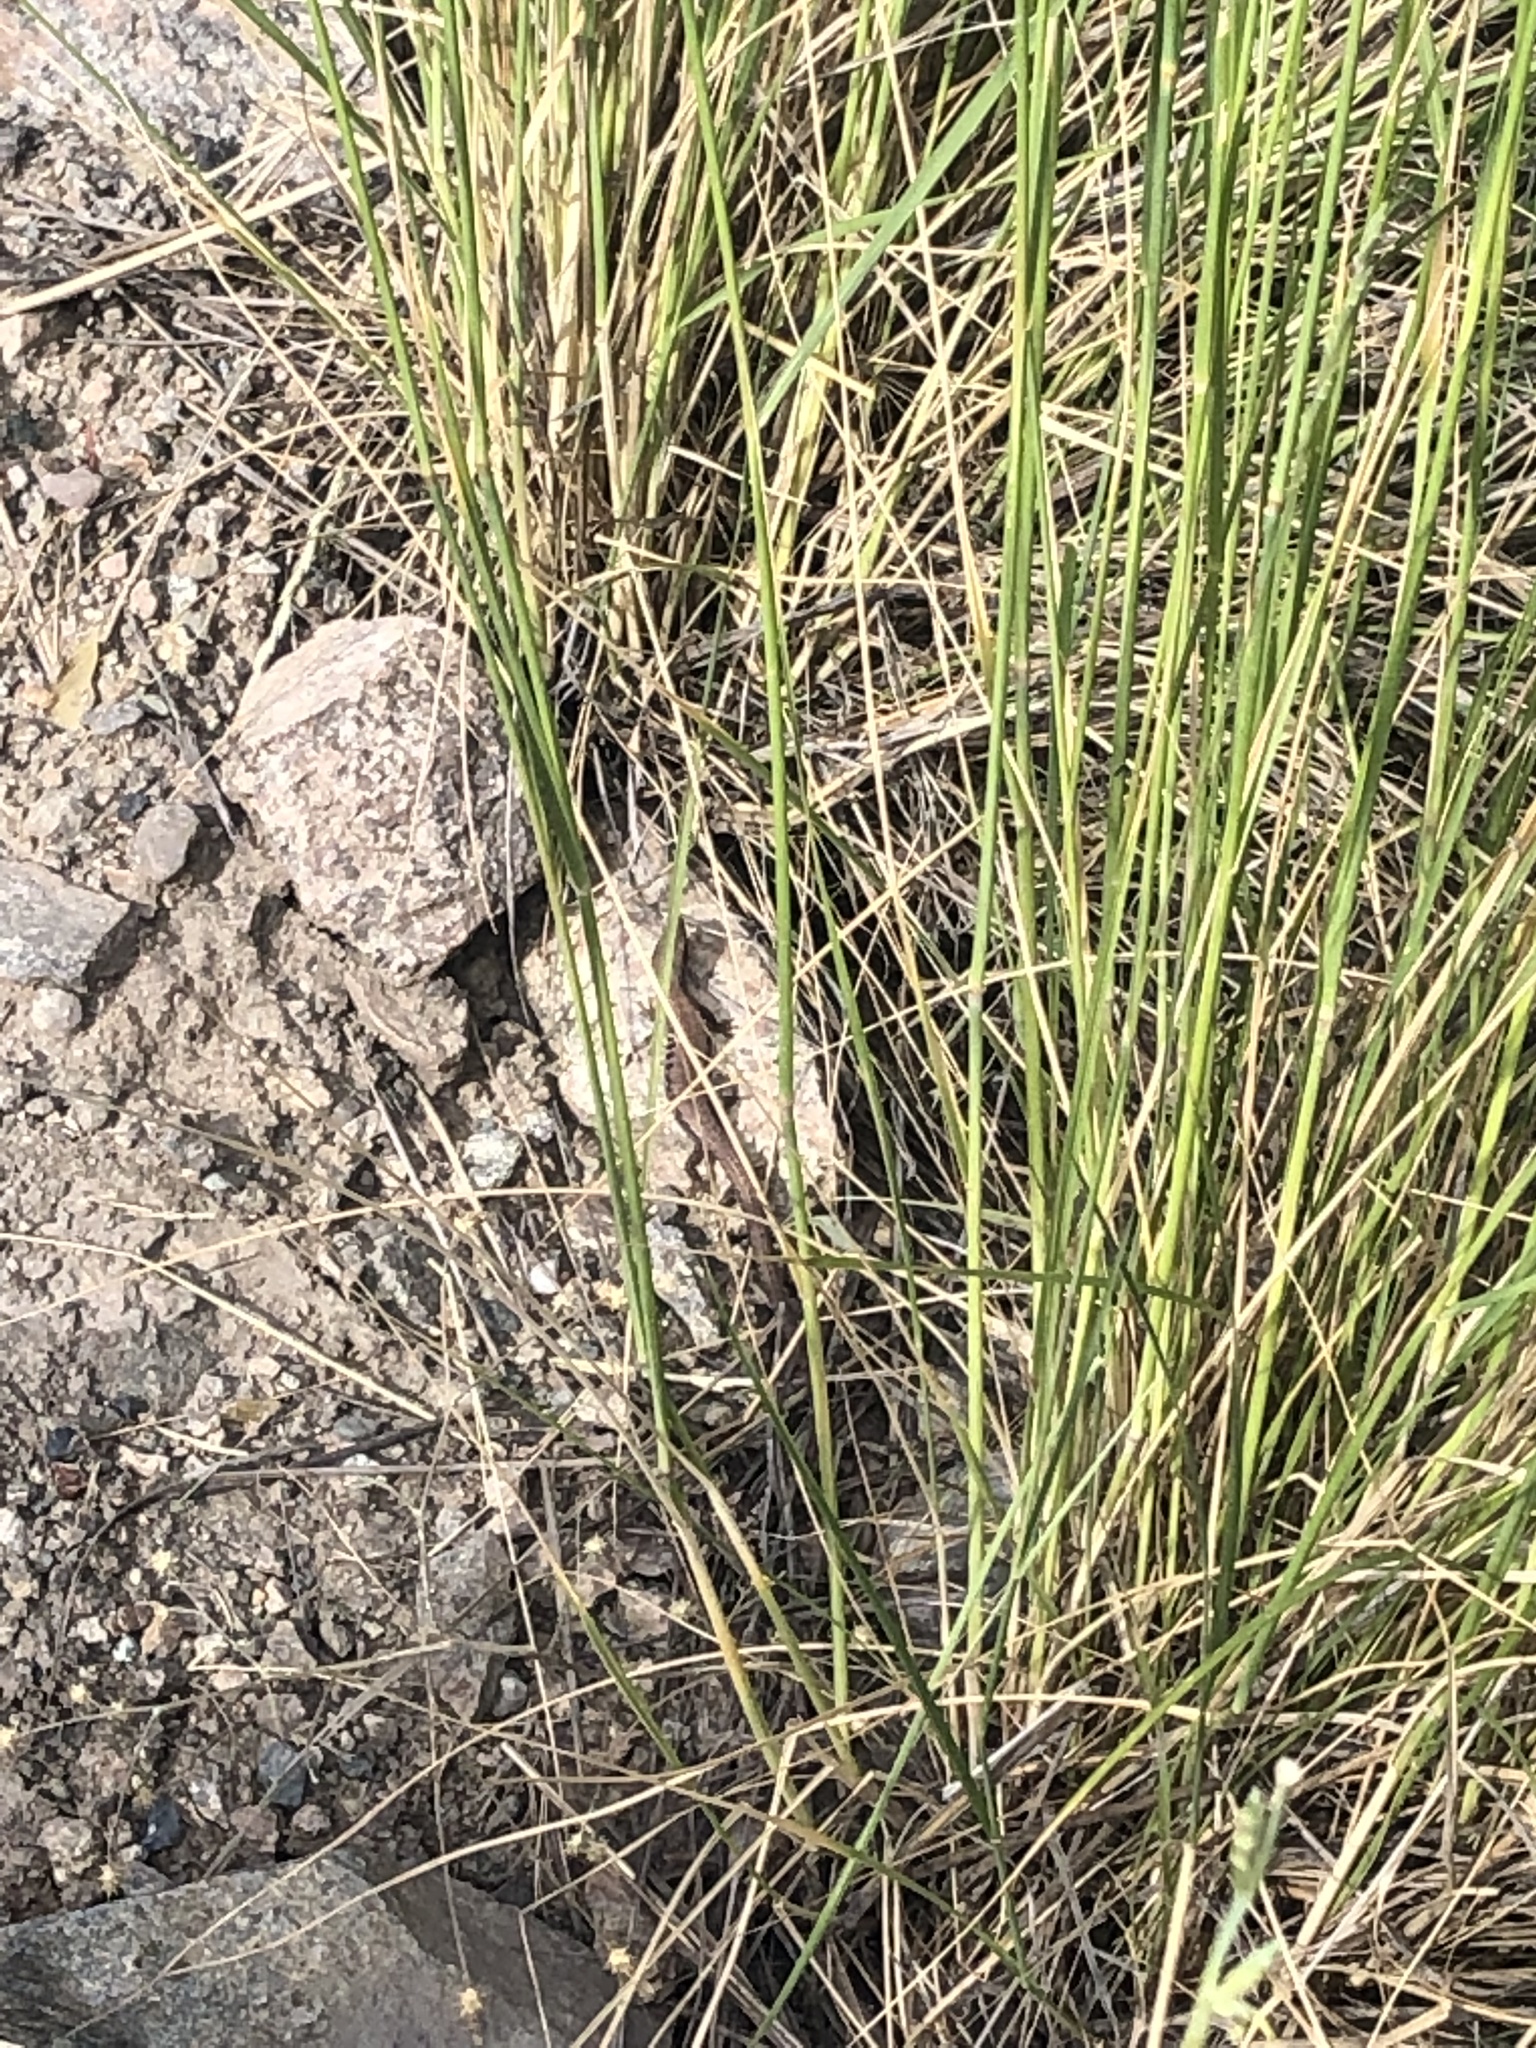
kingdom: Animalia
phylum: Chordata
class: Squamata
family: Anguidae
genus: Elgaria
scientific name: Elgaria coerulea
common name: Northern alligator lizard
